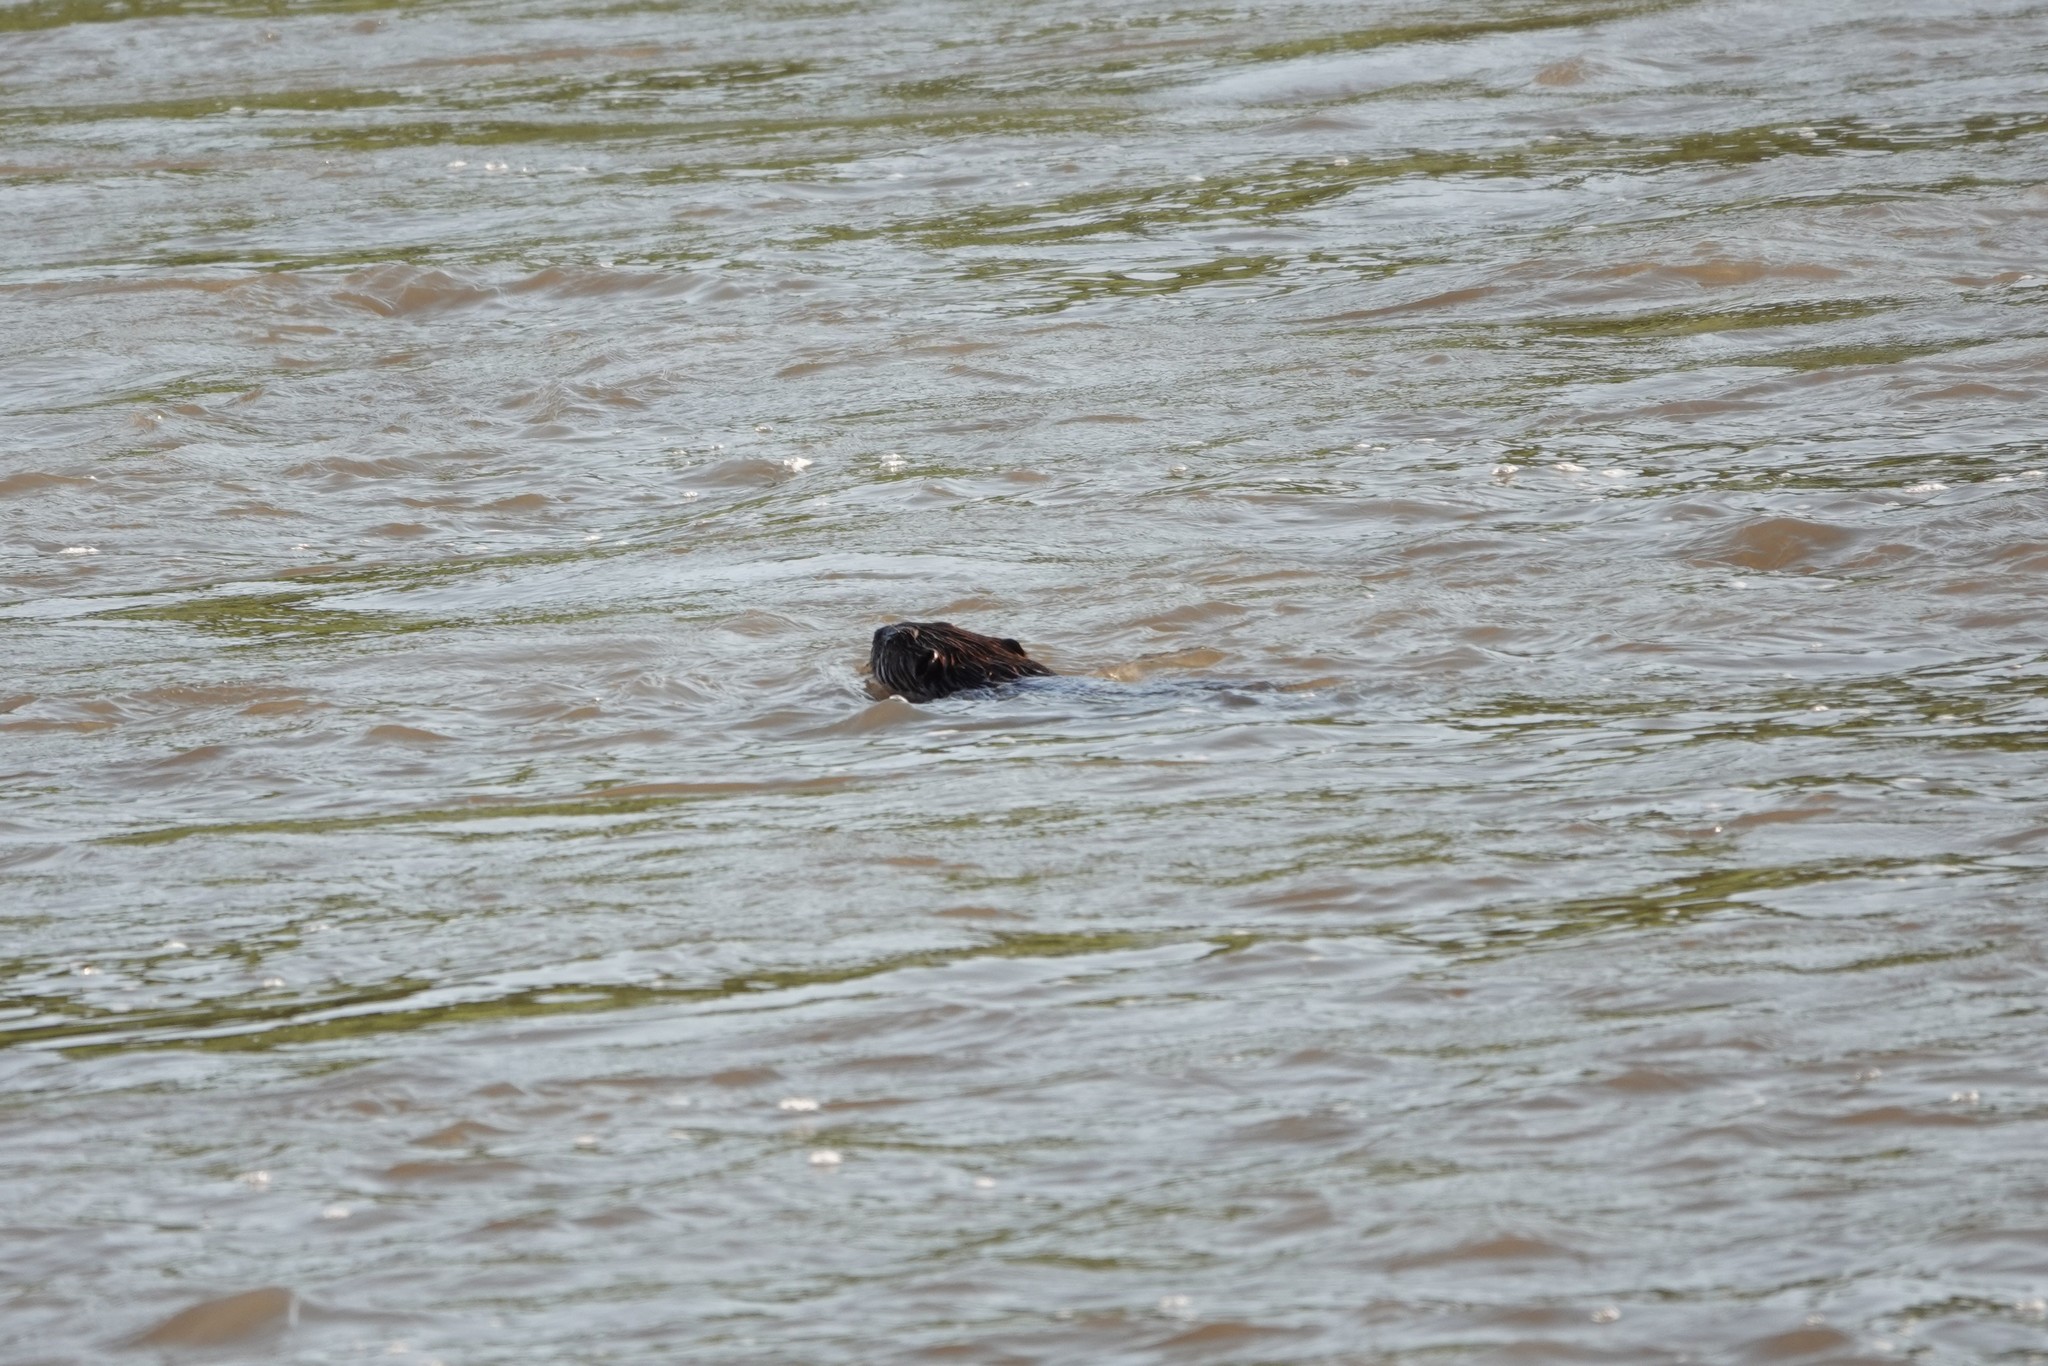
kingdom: Animalia
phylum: Chordata
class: Mammalia
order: Rodentia
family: Castoridae
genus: Castor
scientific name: Castor canadensis
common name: American beaver
